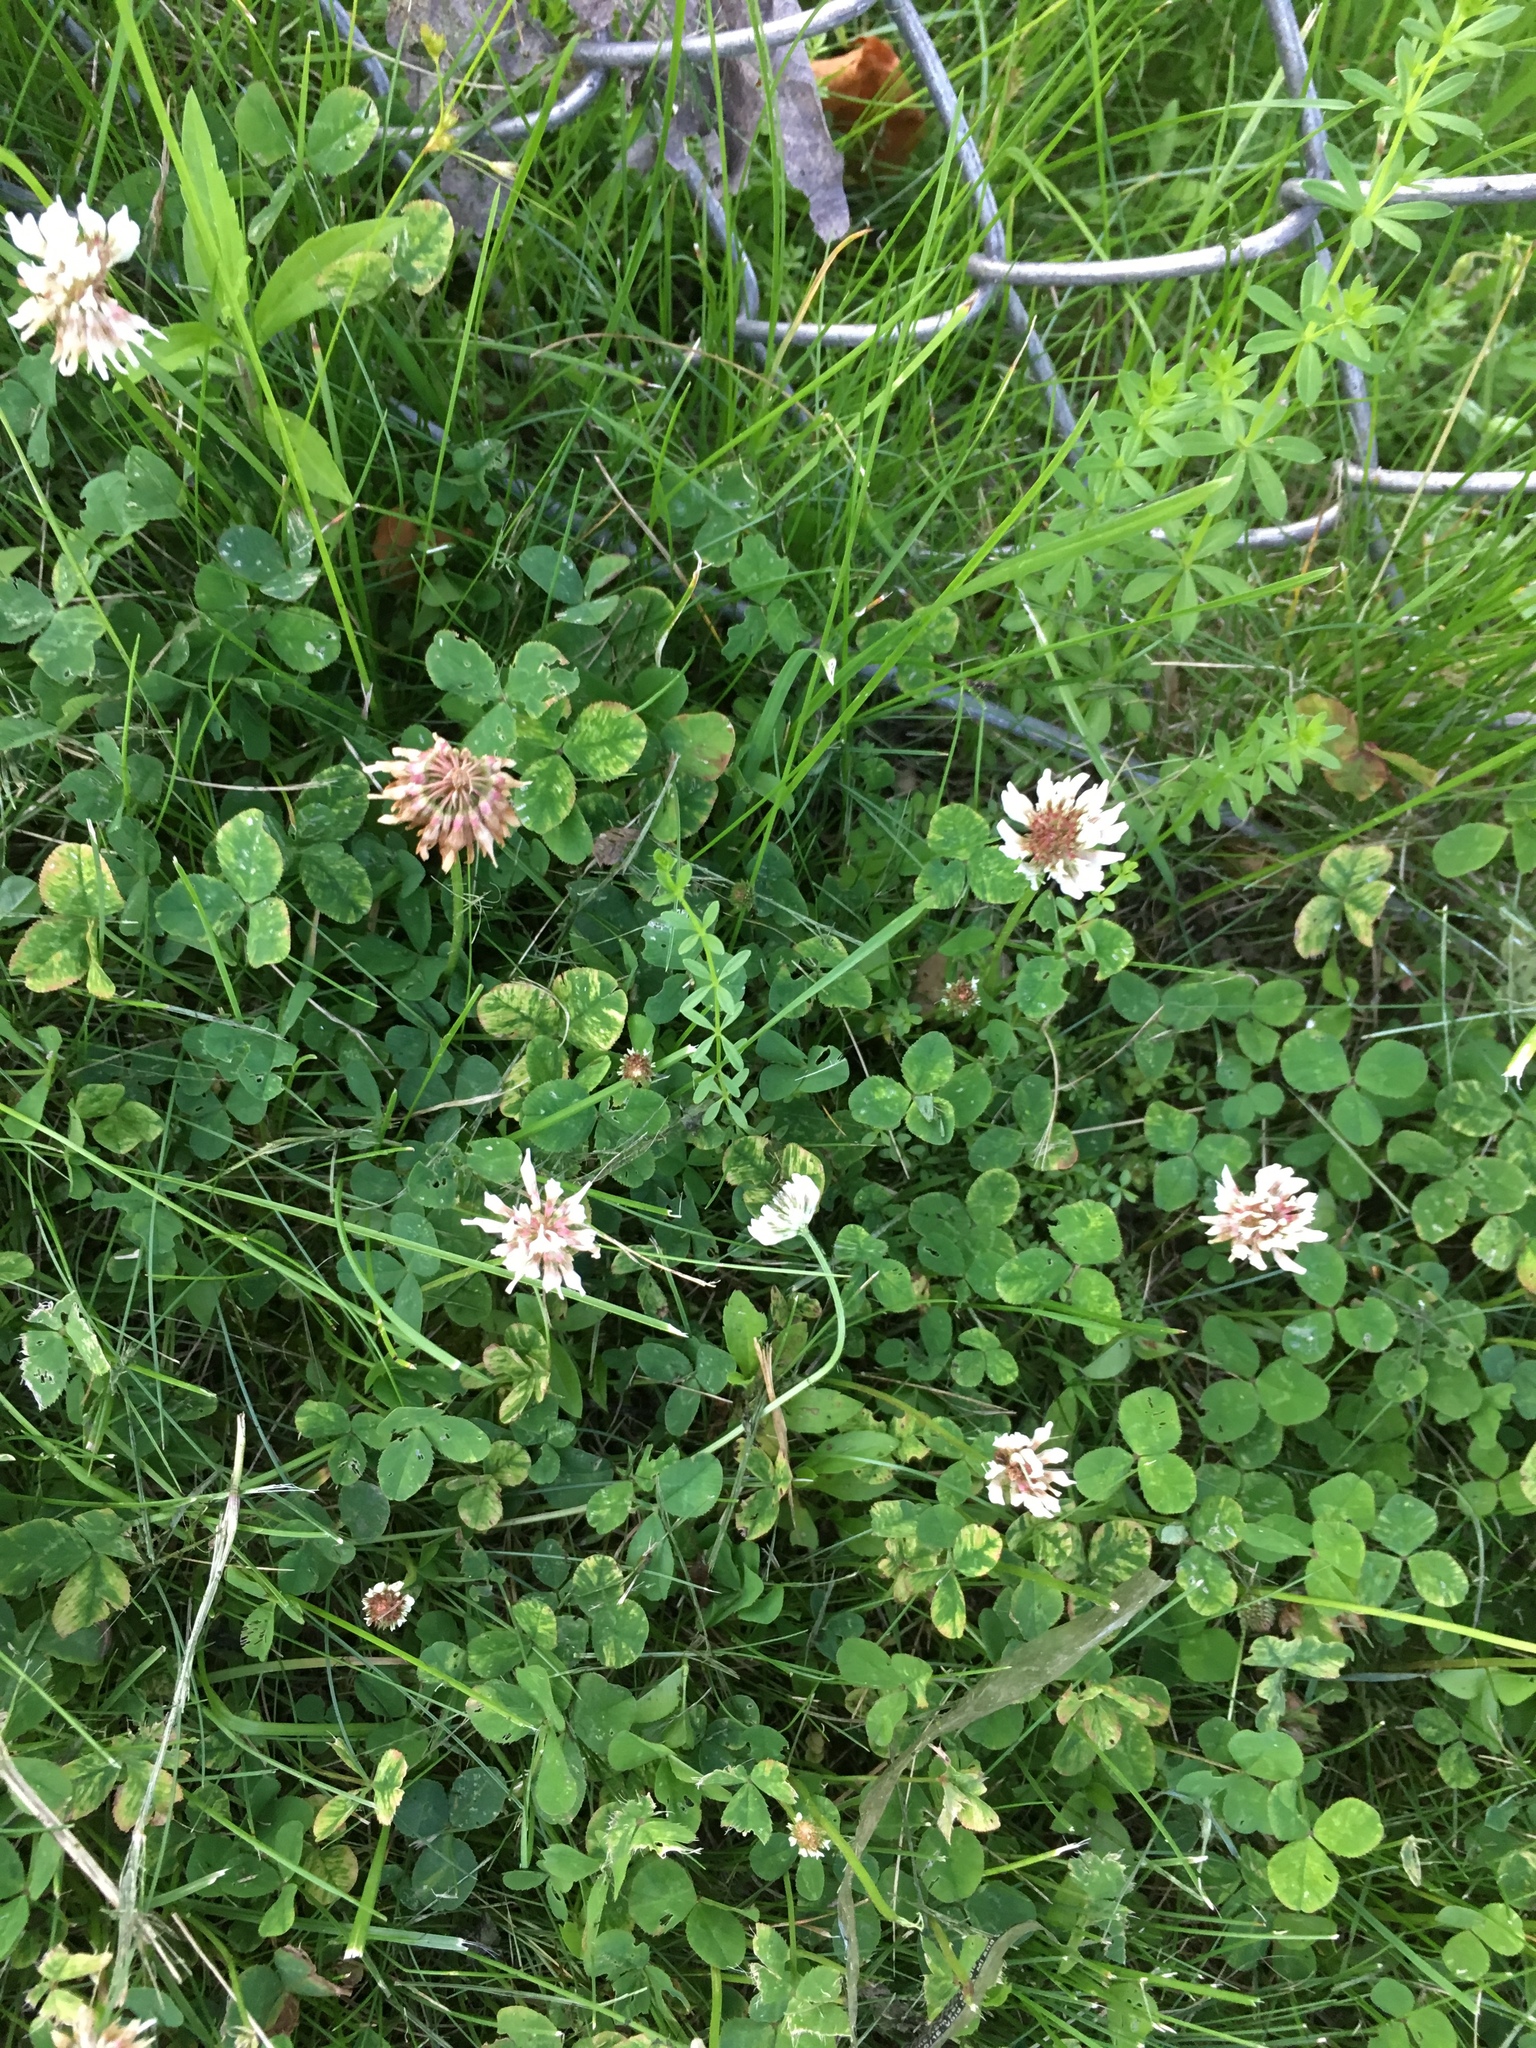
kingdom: Plantae
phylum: Tracheophyta
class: Magnoliopsida
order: Fabales
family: Fabaceae
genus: Trifolium
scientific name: Trifolium repens
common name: White clover
